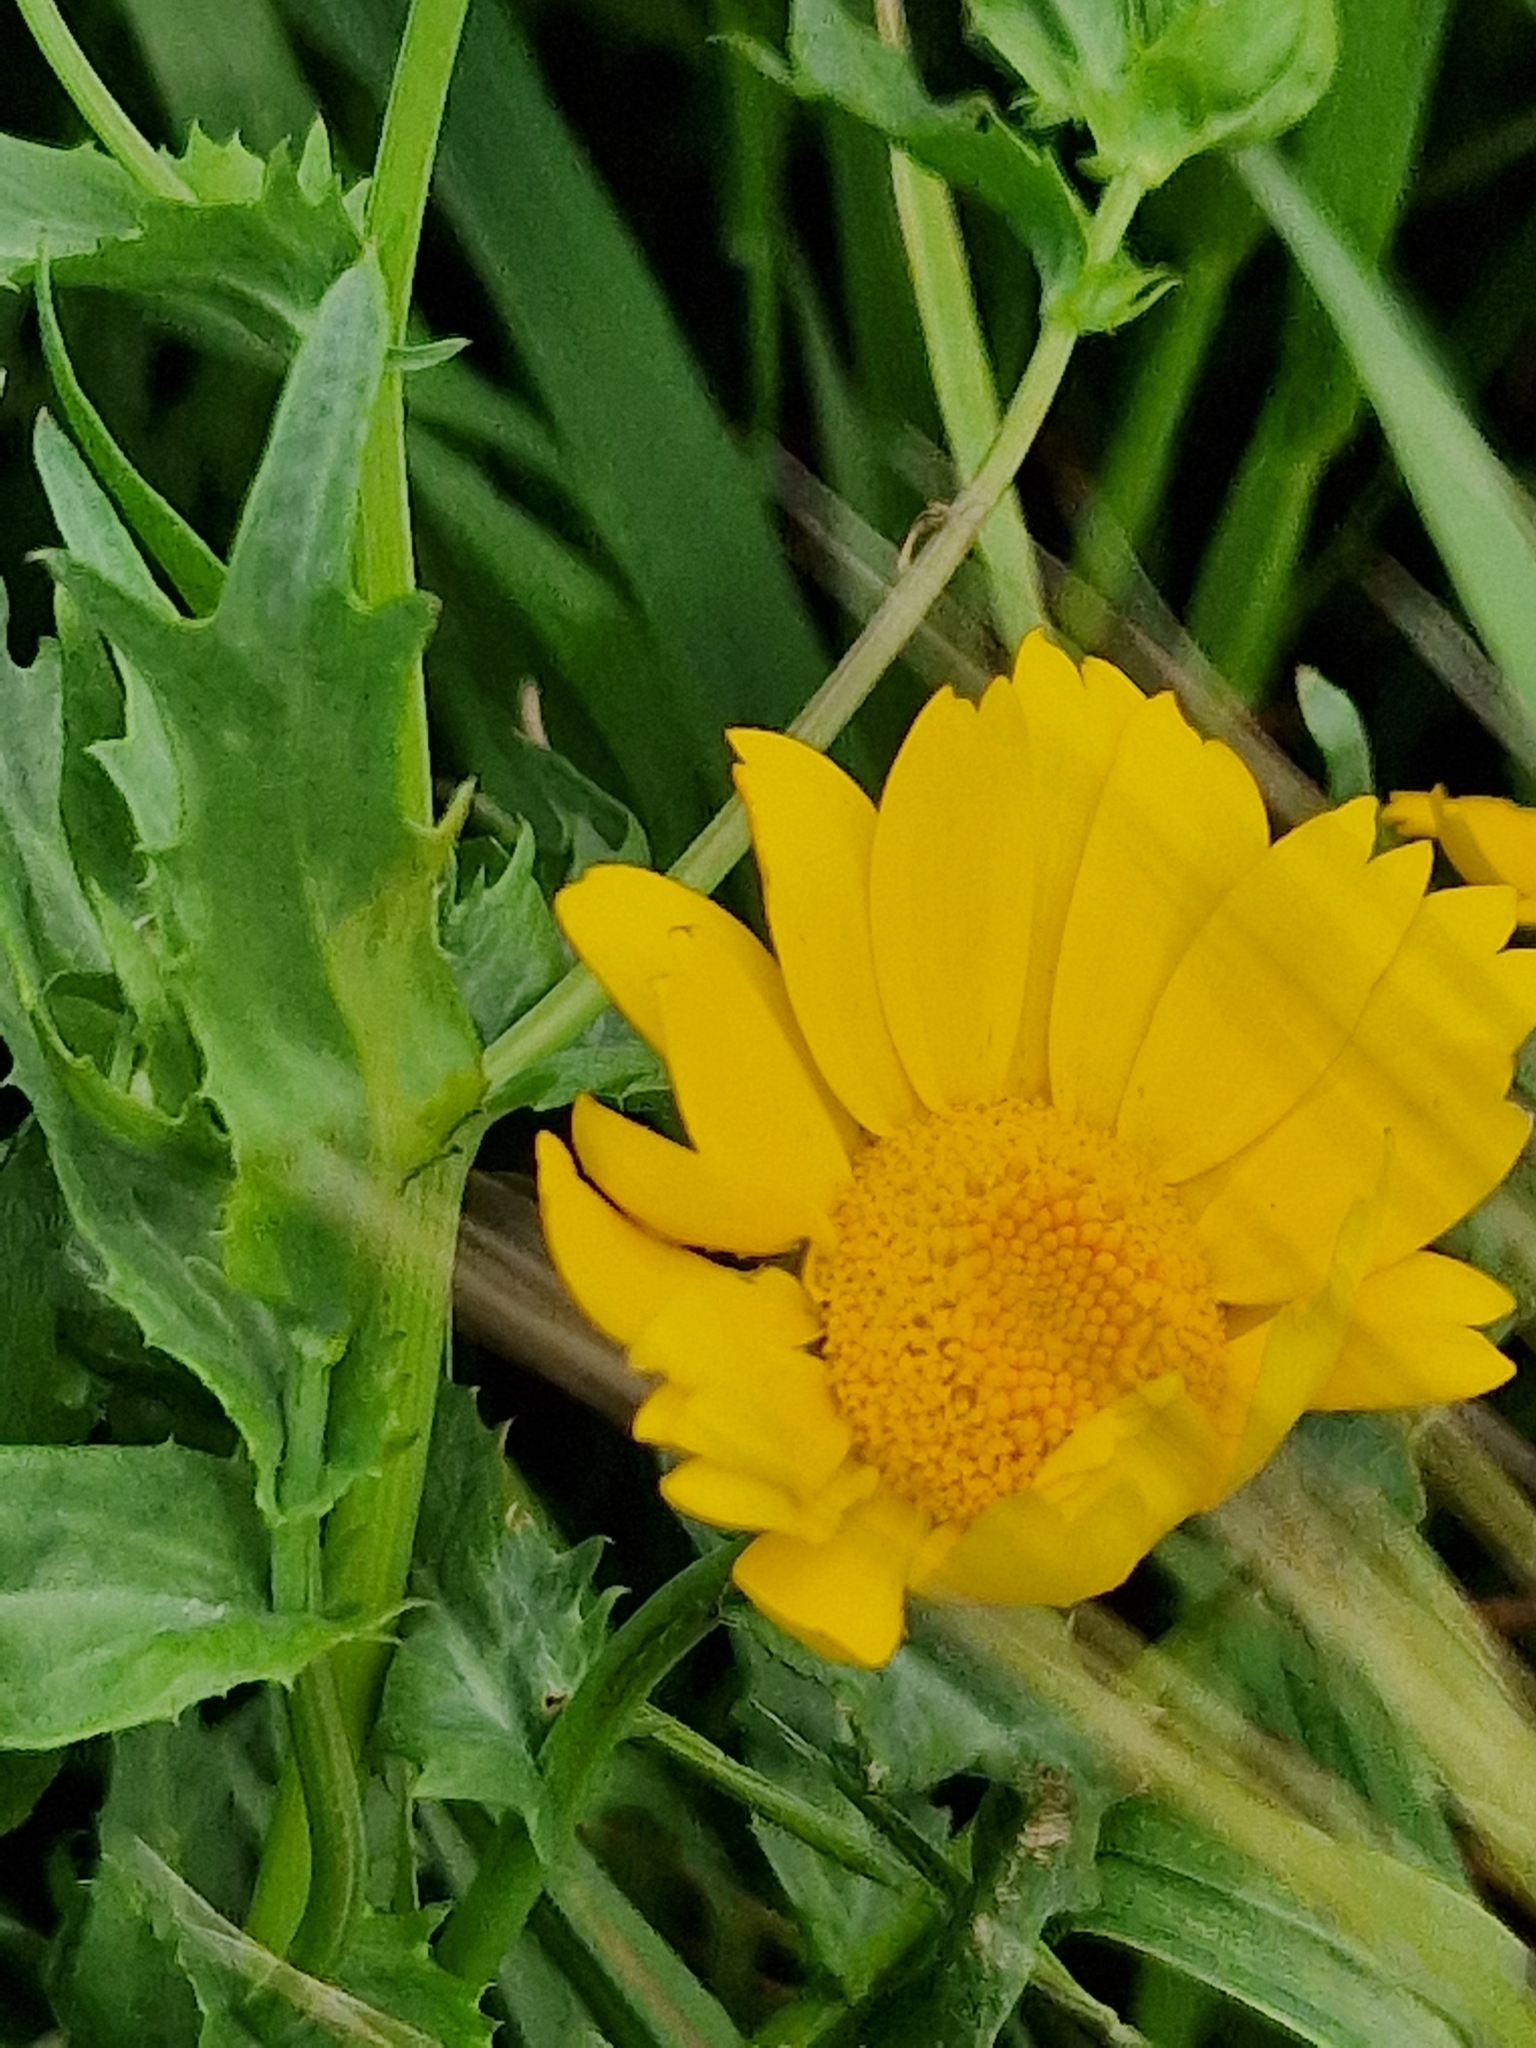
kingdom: Plantae
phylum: Tracheophyta
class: Magnoliopsida
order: Asterales
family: Asteraceae
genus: Glebionis
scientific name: Glebionis segetum
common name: Corndaisy
